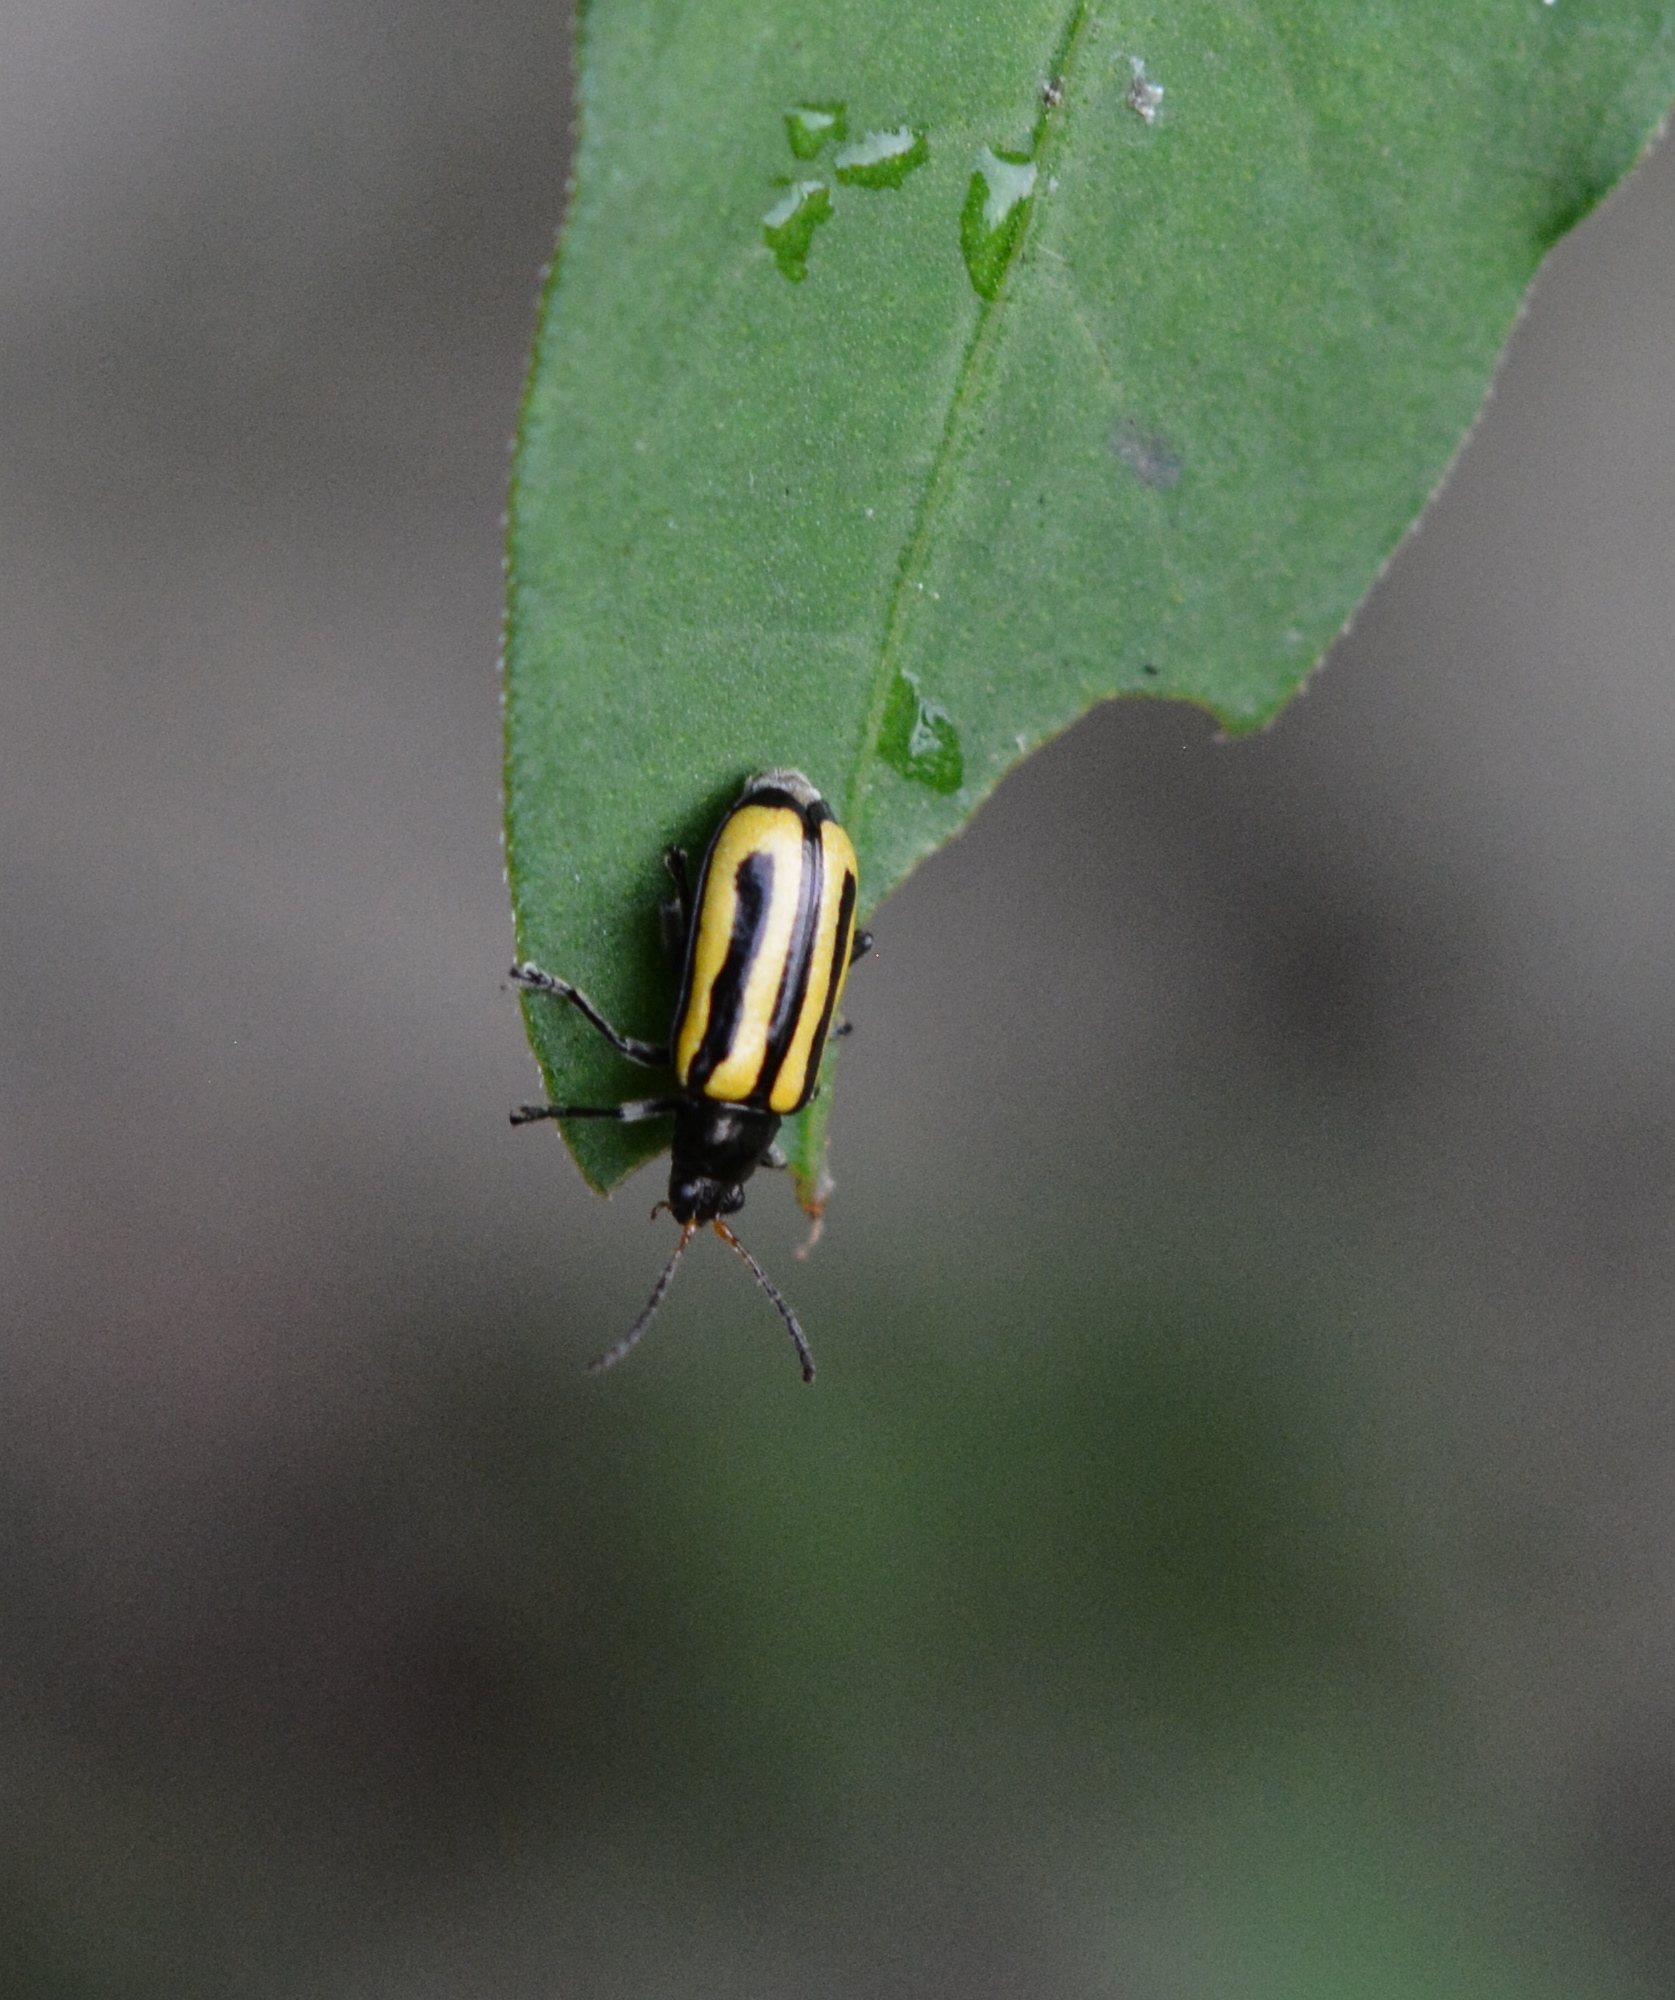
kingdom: Animalia
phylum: Arthropoda
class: Insecta
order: Coleoptera
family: Chrysomelidae
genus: Agasicles
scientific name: Agasicles hygrophila
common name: Alligatorweed flea beetle
